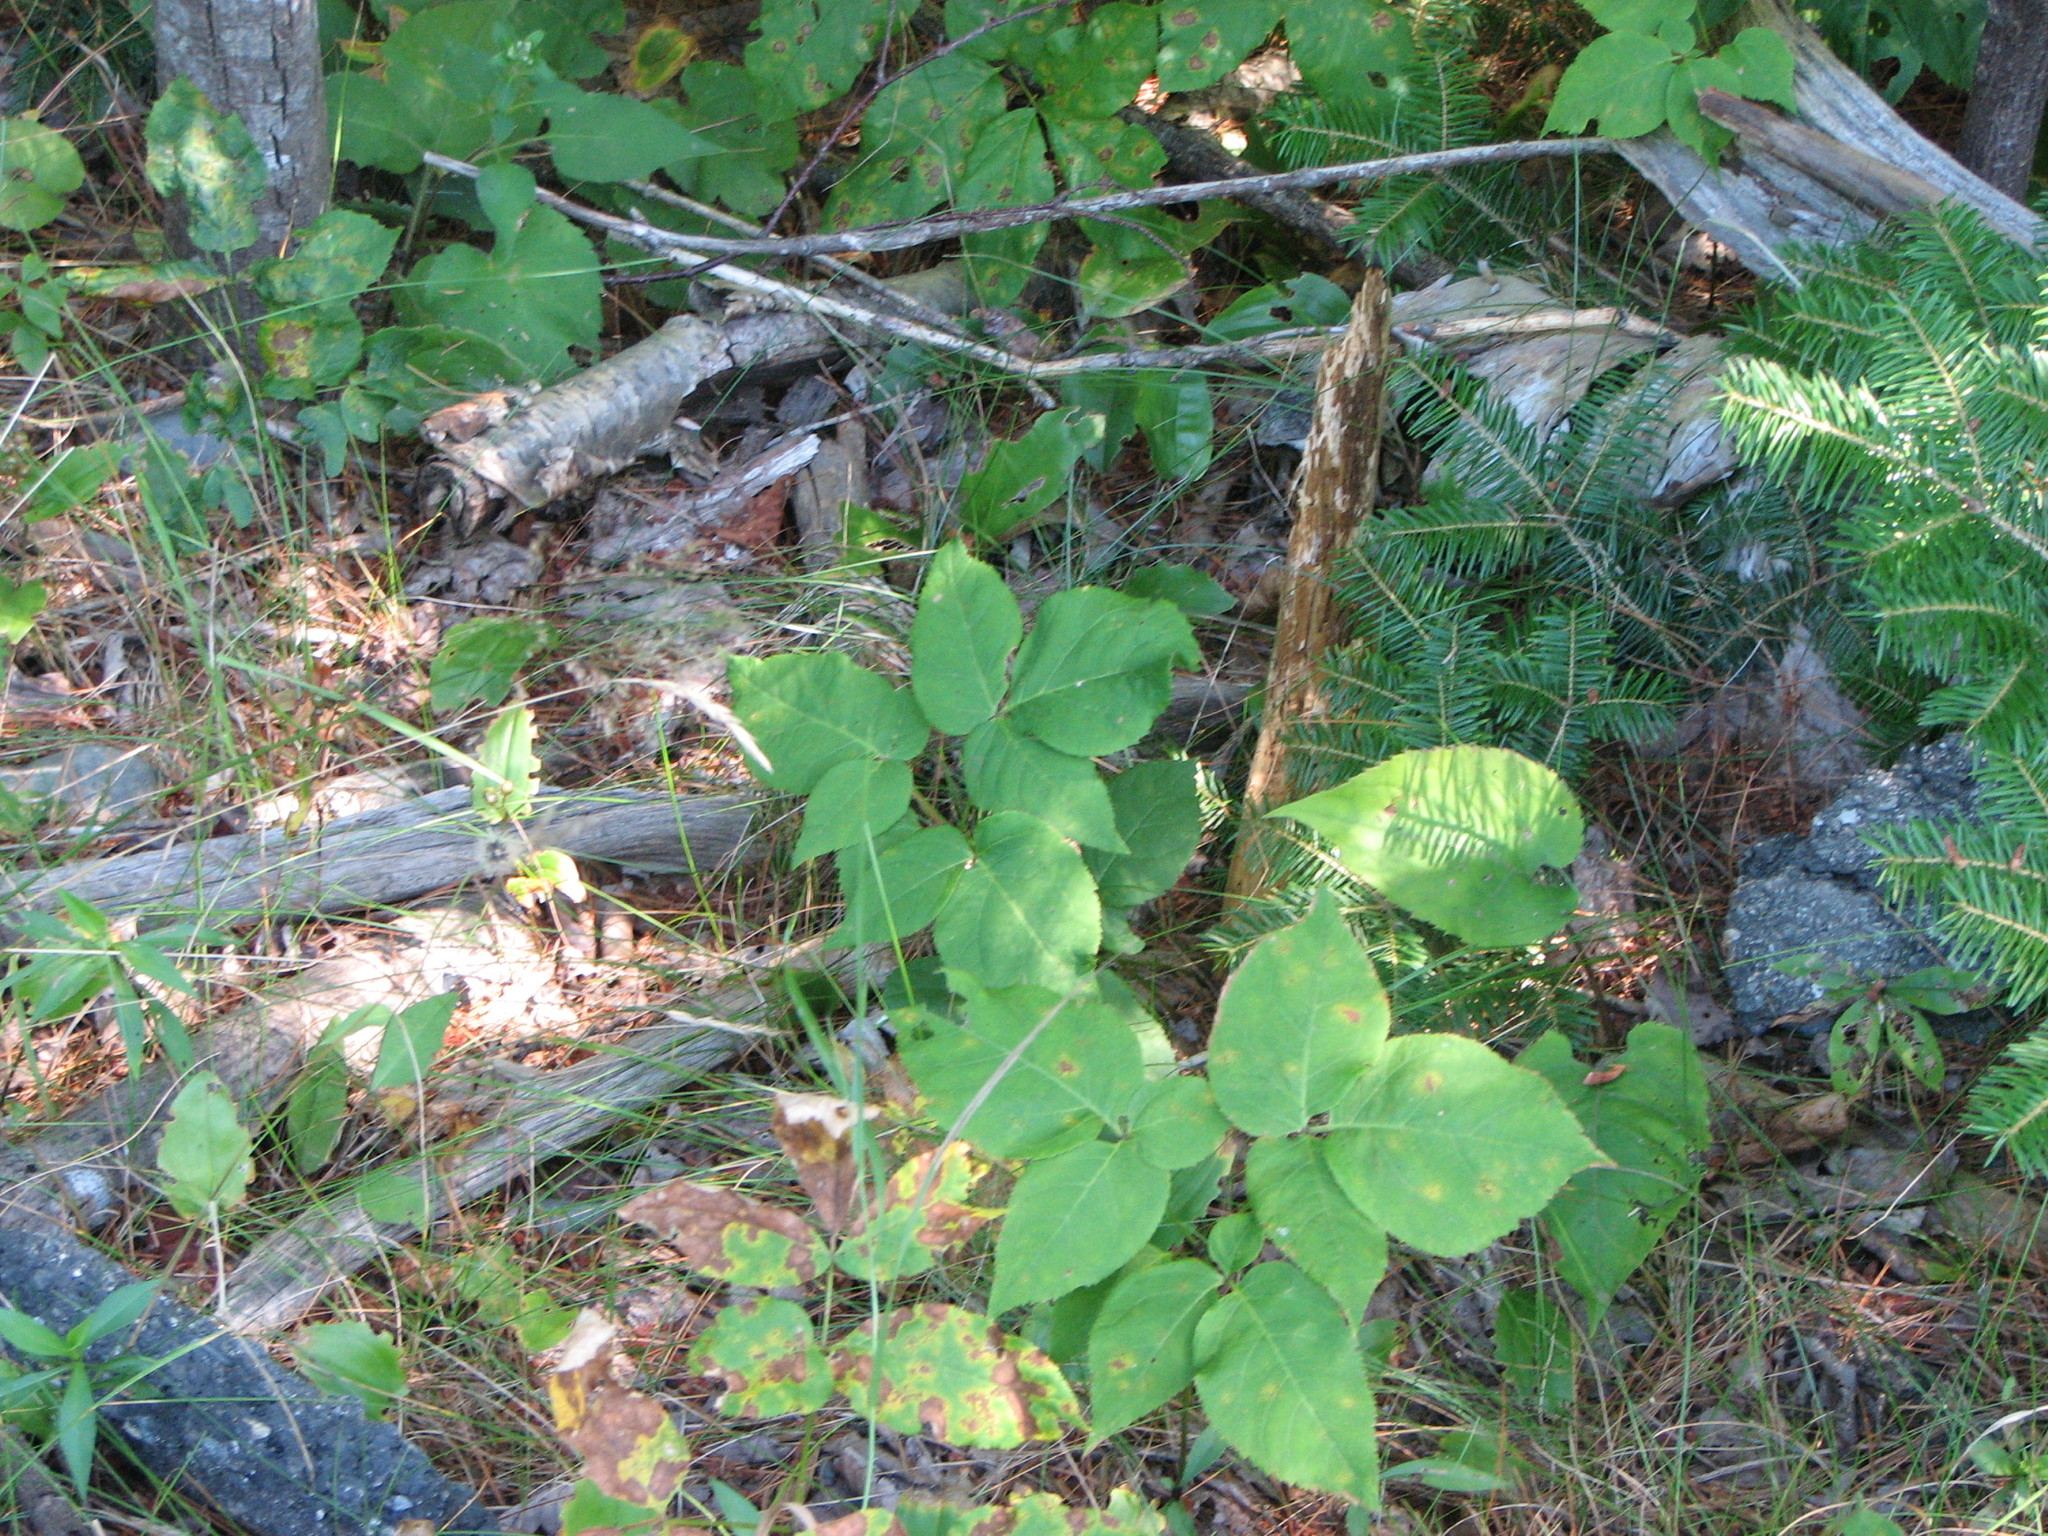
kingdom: Plantae
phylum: Tracheophyta
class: Magnoliopsida
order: Apiales
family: Araliaceae
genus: Aralia
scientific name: Aralia nudicaulis
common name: Wild sarsaparilla
